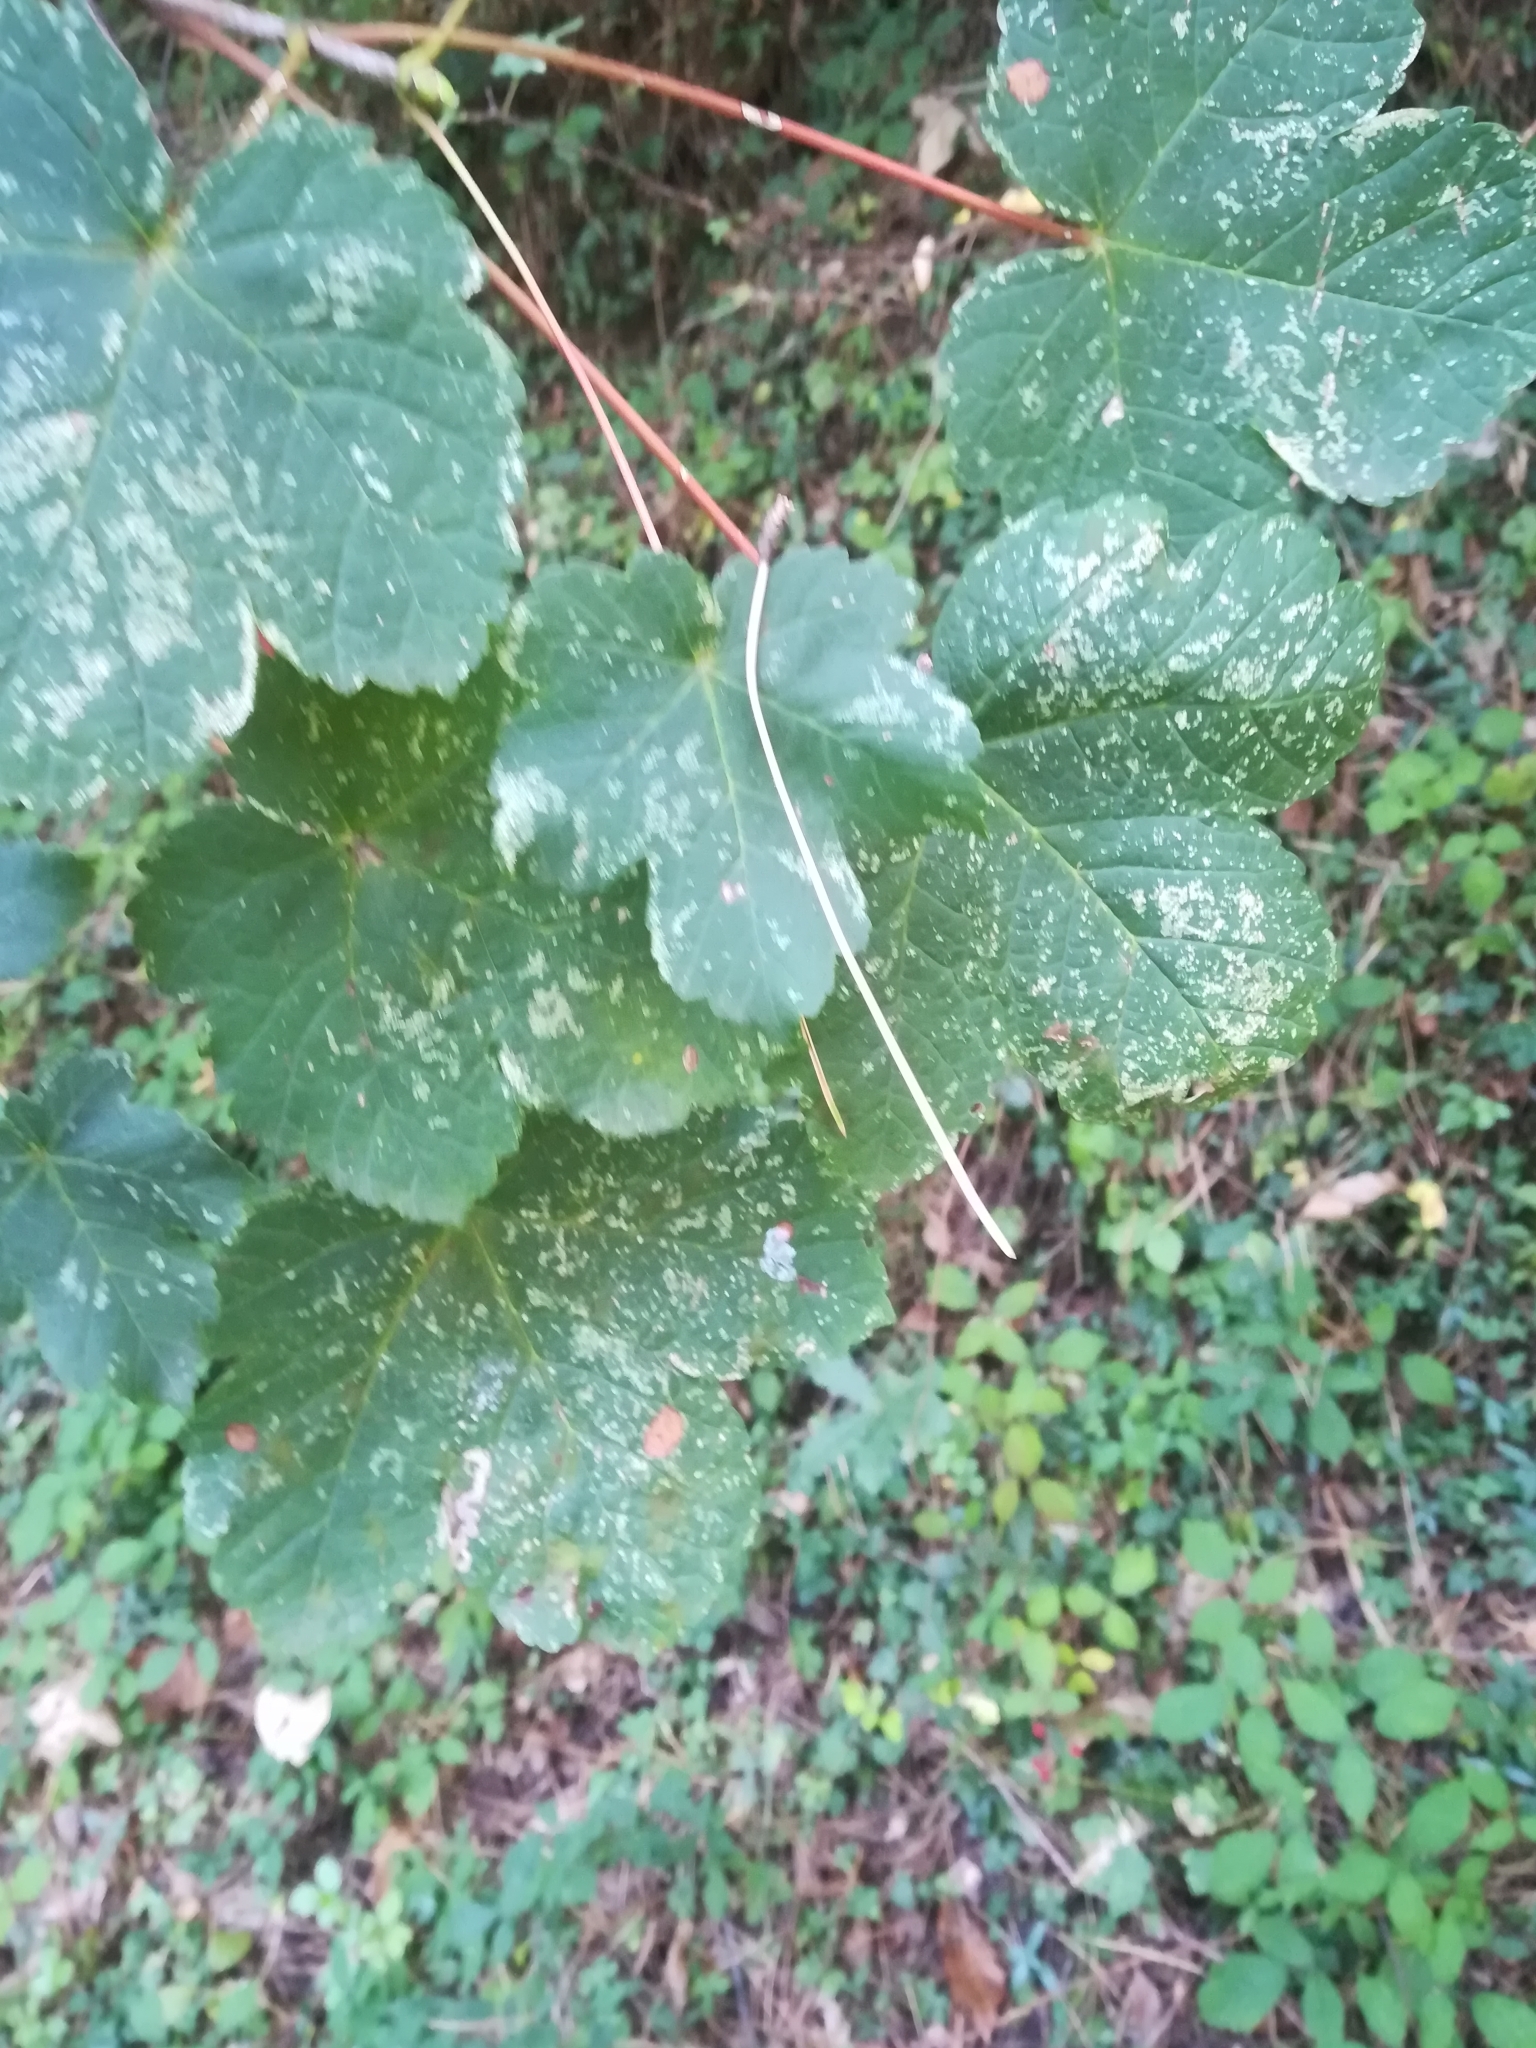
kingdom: Plantae
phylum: Tracheophyta
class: Magnoliopsida
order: Sapindales
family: Sapindaceae
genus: Acer
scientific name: Acer opalus
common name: Italian maple
